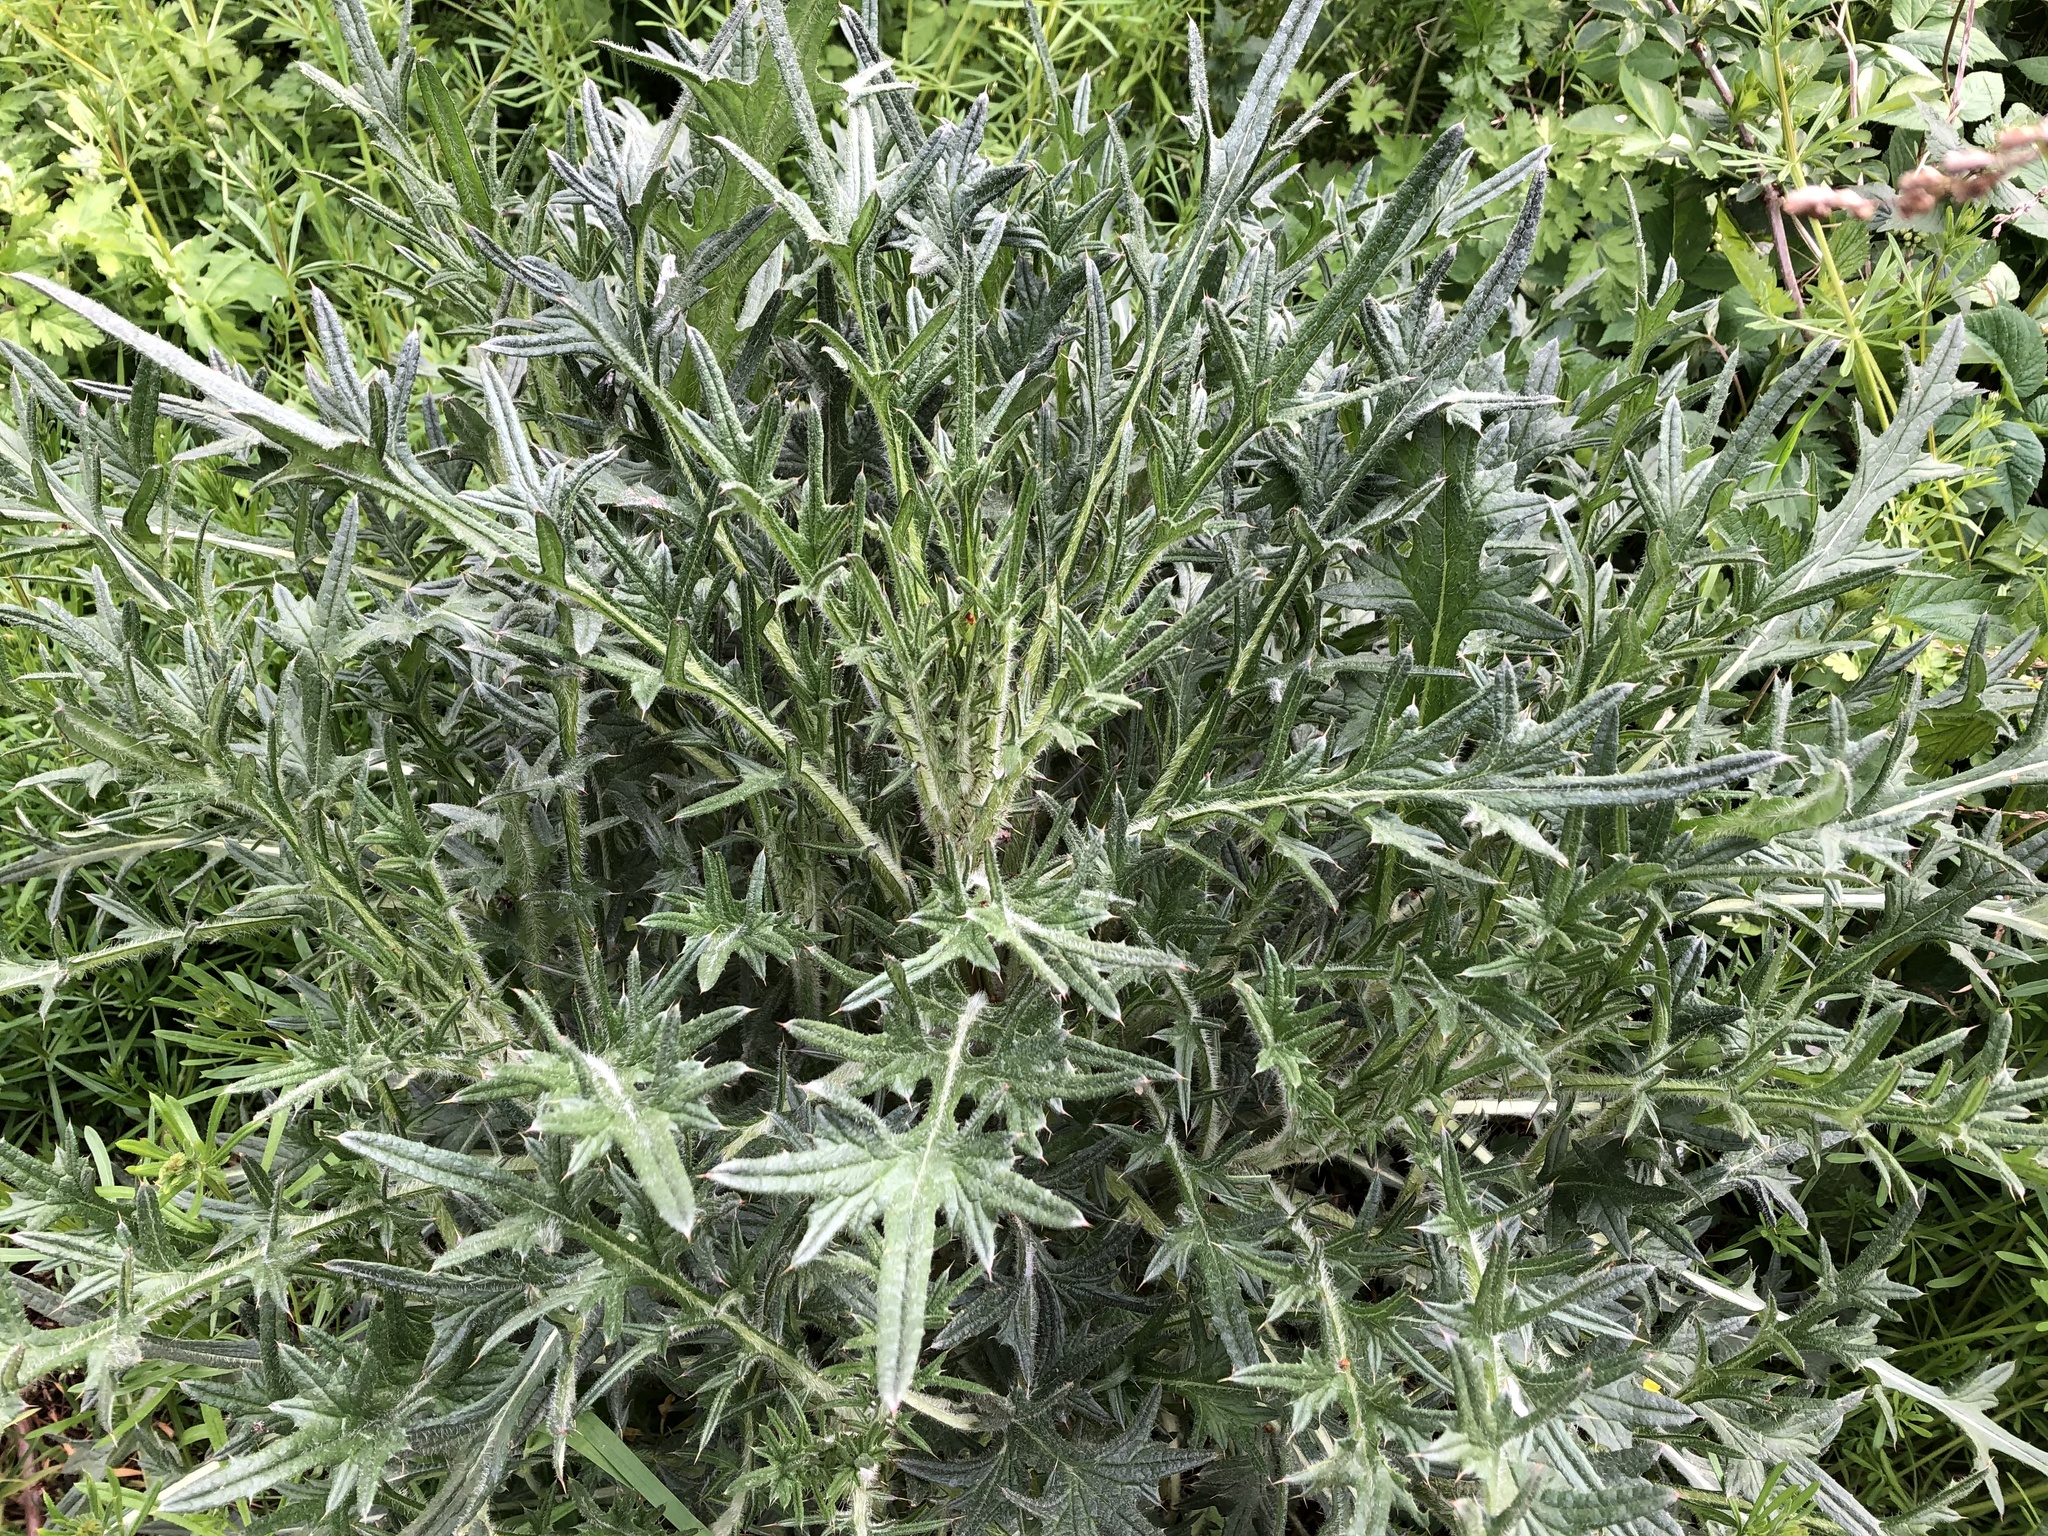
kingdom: Plantae
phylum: Tracheophyta
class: Magnoliopsida
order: Asterales
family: Asteraceae
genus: Cirsium
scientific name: Cirsium vulgare
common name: Bull thistle
